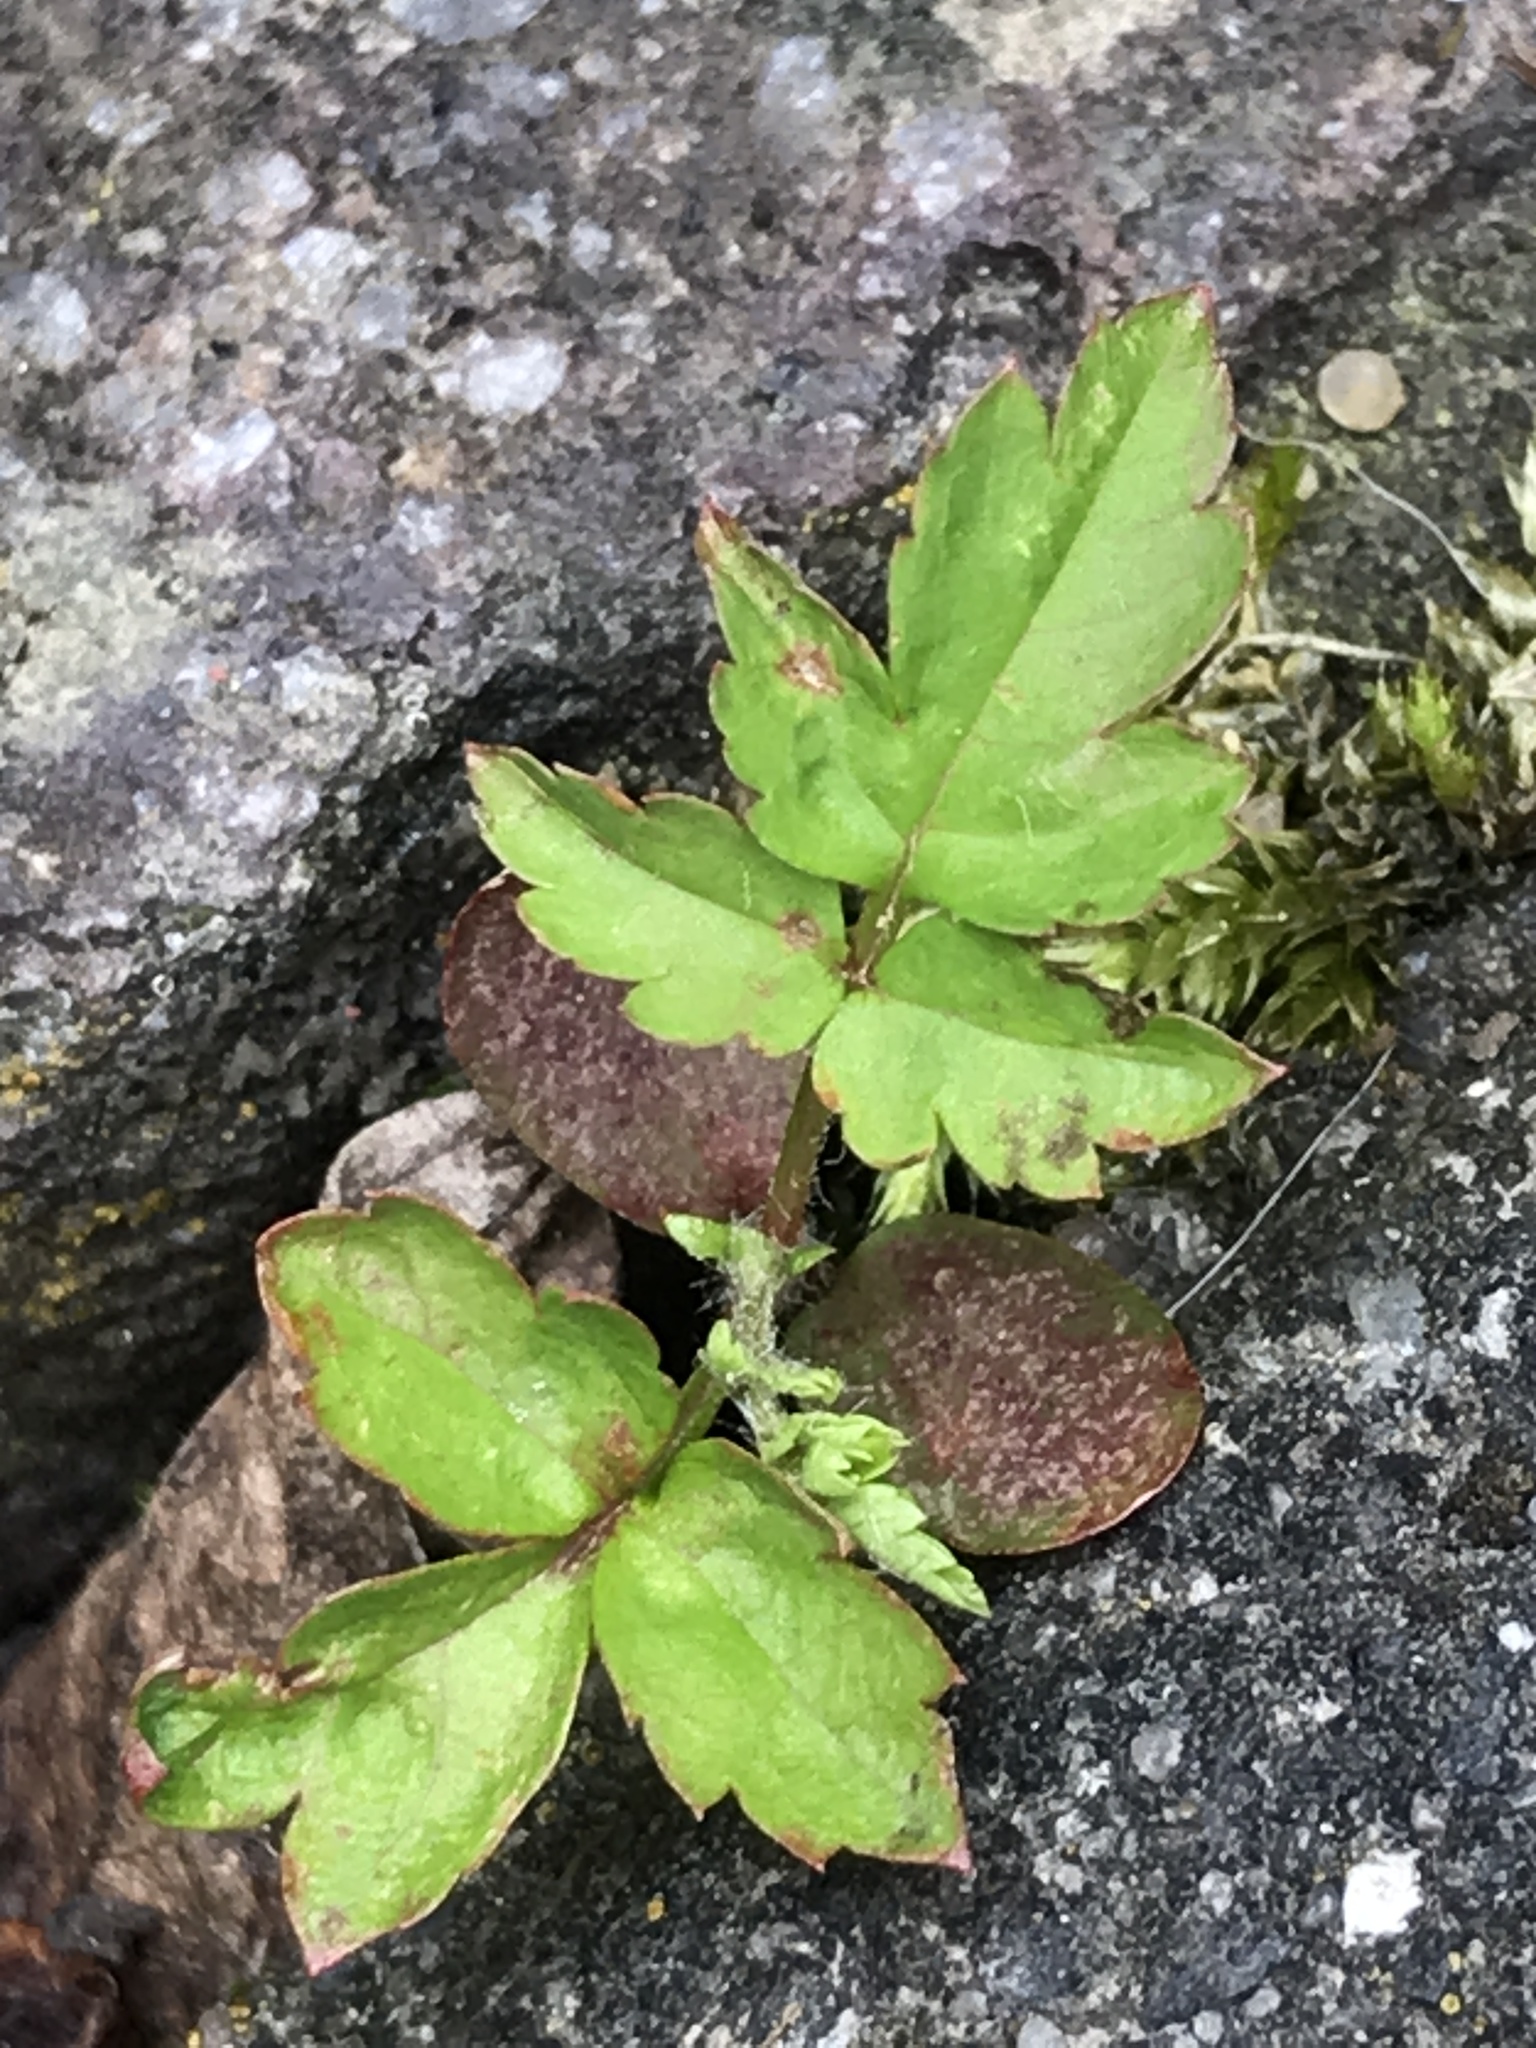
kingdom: Plantae
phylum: Tracheophyta
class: Magnoliopsida
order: Ranunculales
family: Ranunculaceae
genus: Clematis
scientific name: Clematis vitalba
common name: Evergreen clematis
